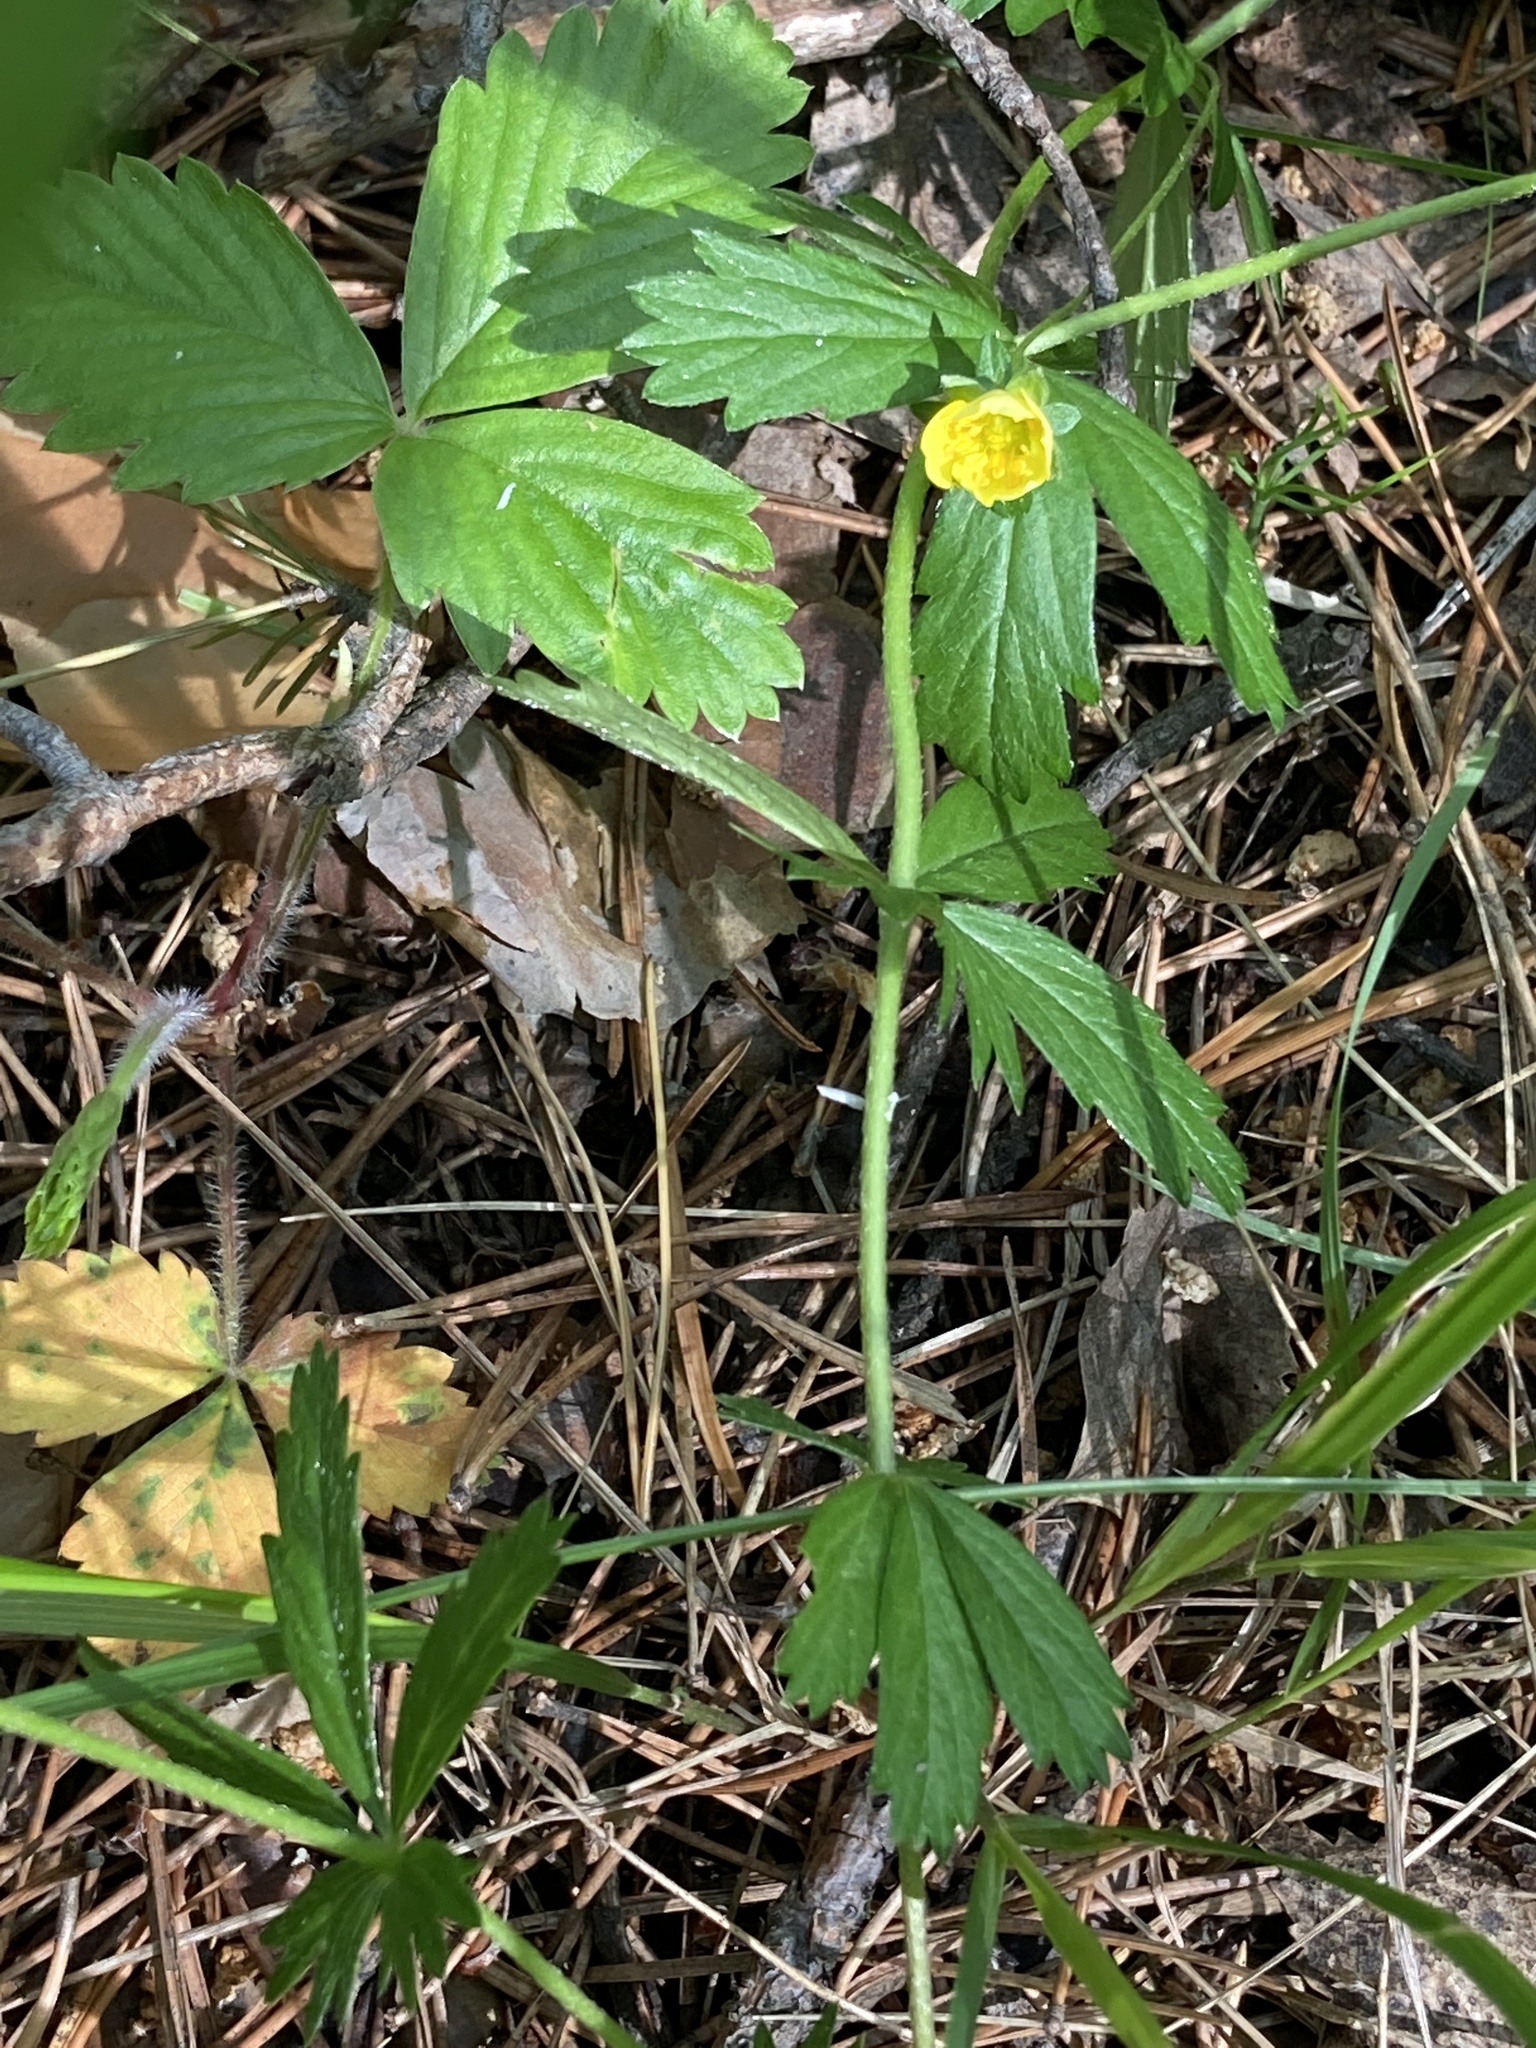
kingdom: Plantae
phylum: Tracheophyta
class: Magnoliopsida
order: Rosales
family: Rosaceae
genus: Potentilla
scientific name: Potentilla erecta
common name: Tormentil
